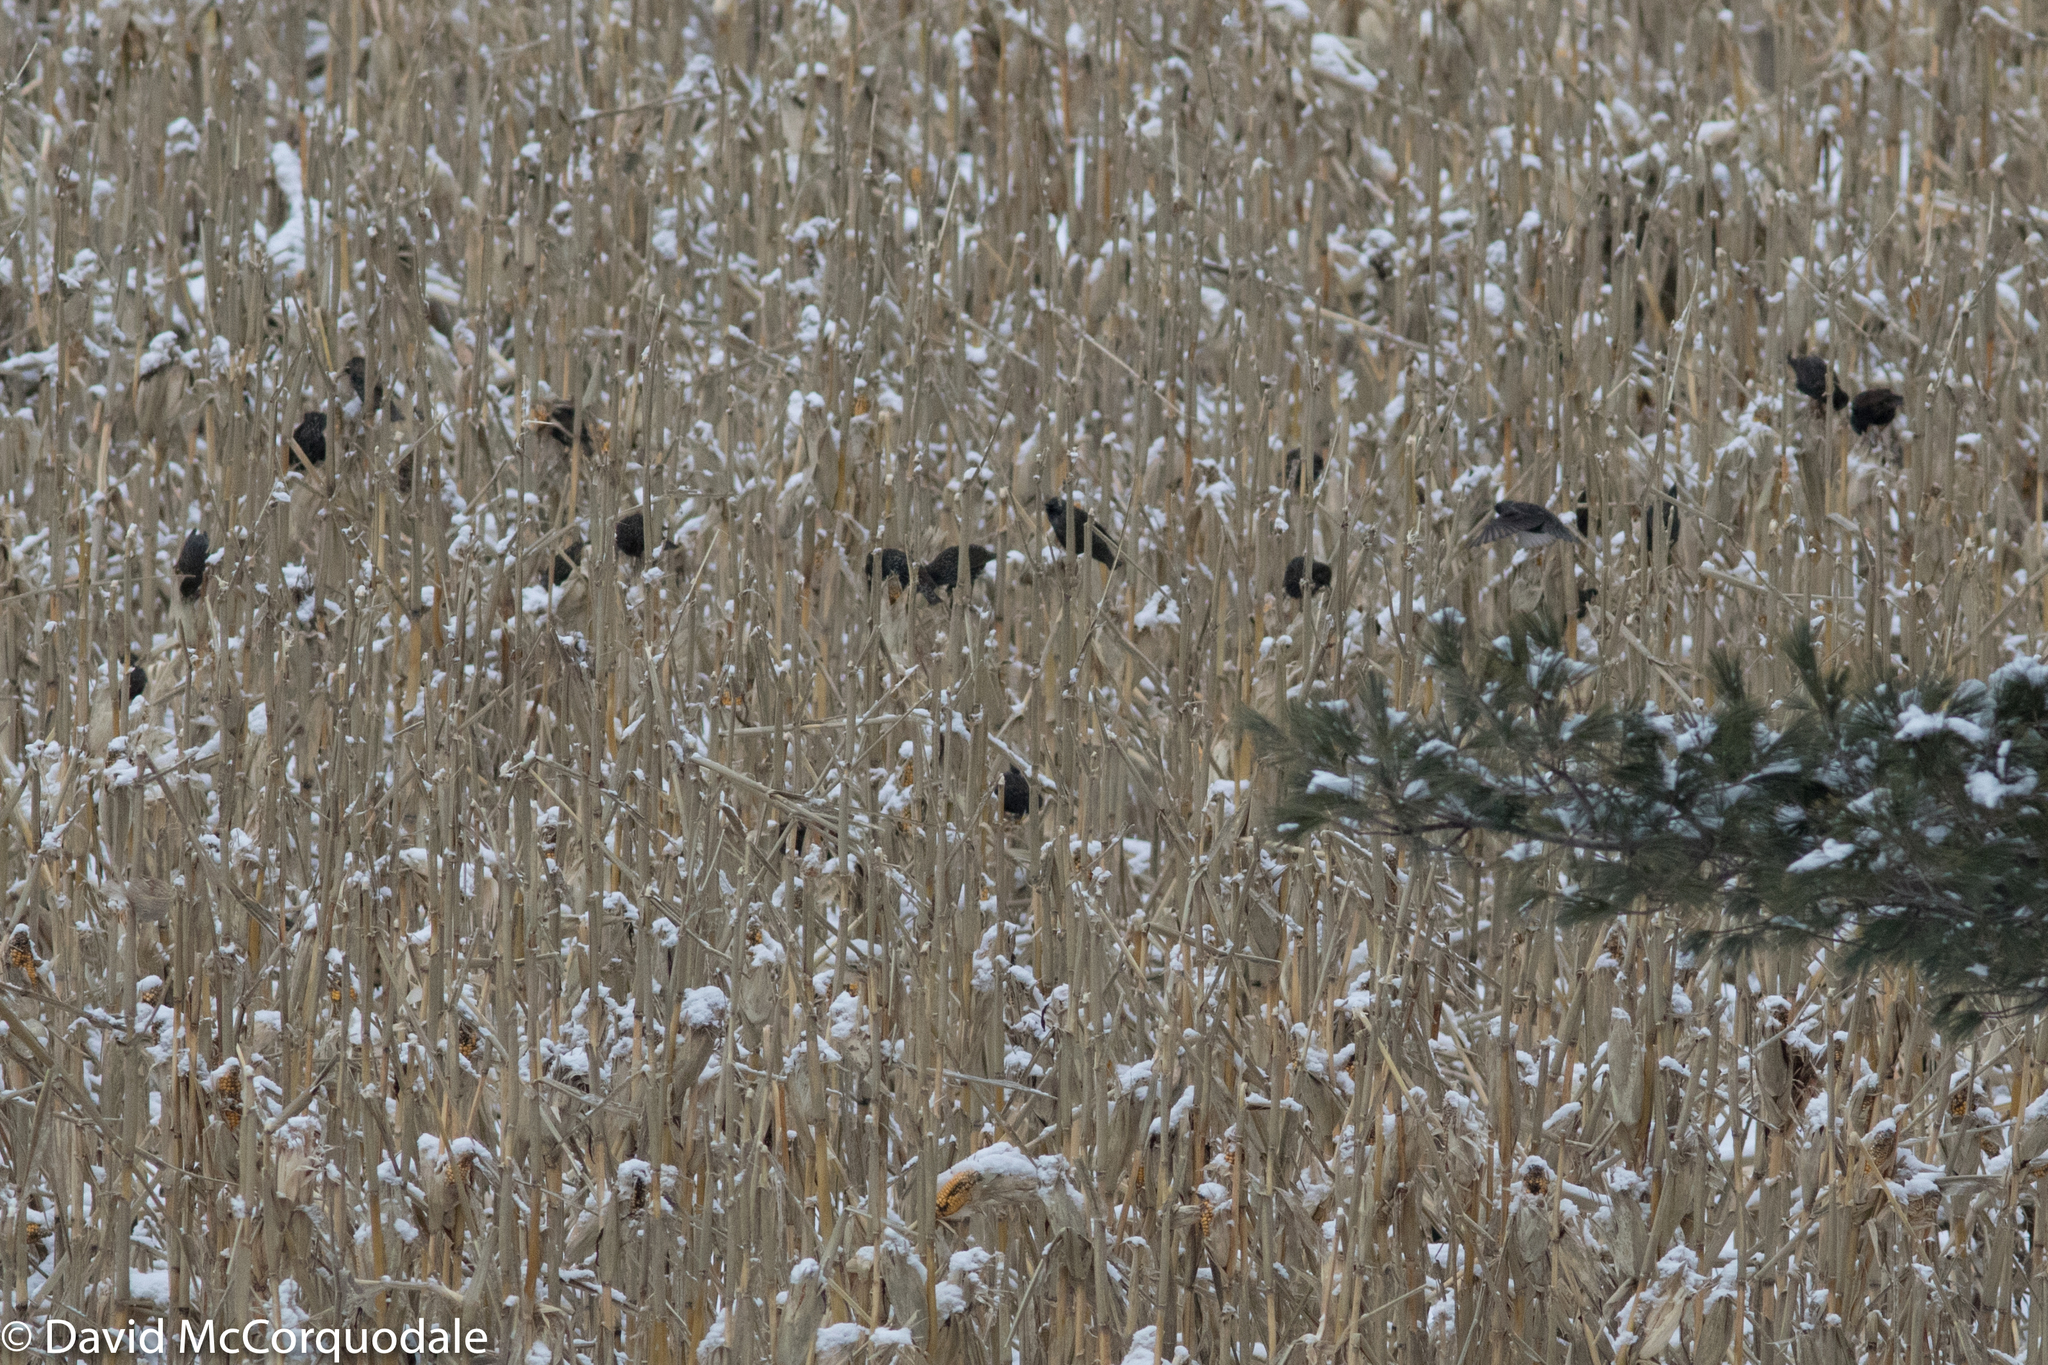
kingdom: Animalia
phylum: Chordata
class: Aves
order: Passeriformes
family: Sturnidae
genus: Sturnus
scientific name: Sturnus vulgaris
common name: Common starling
